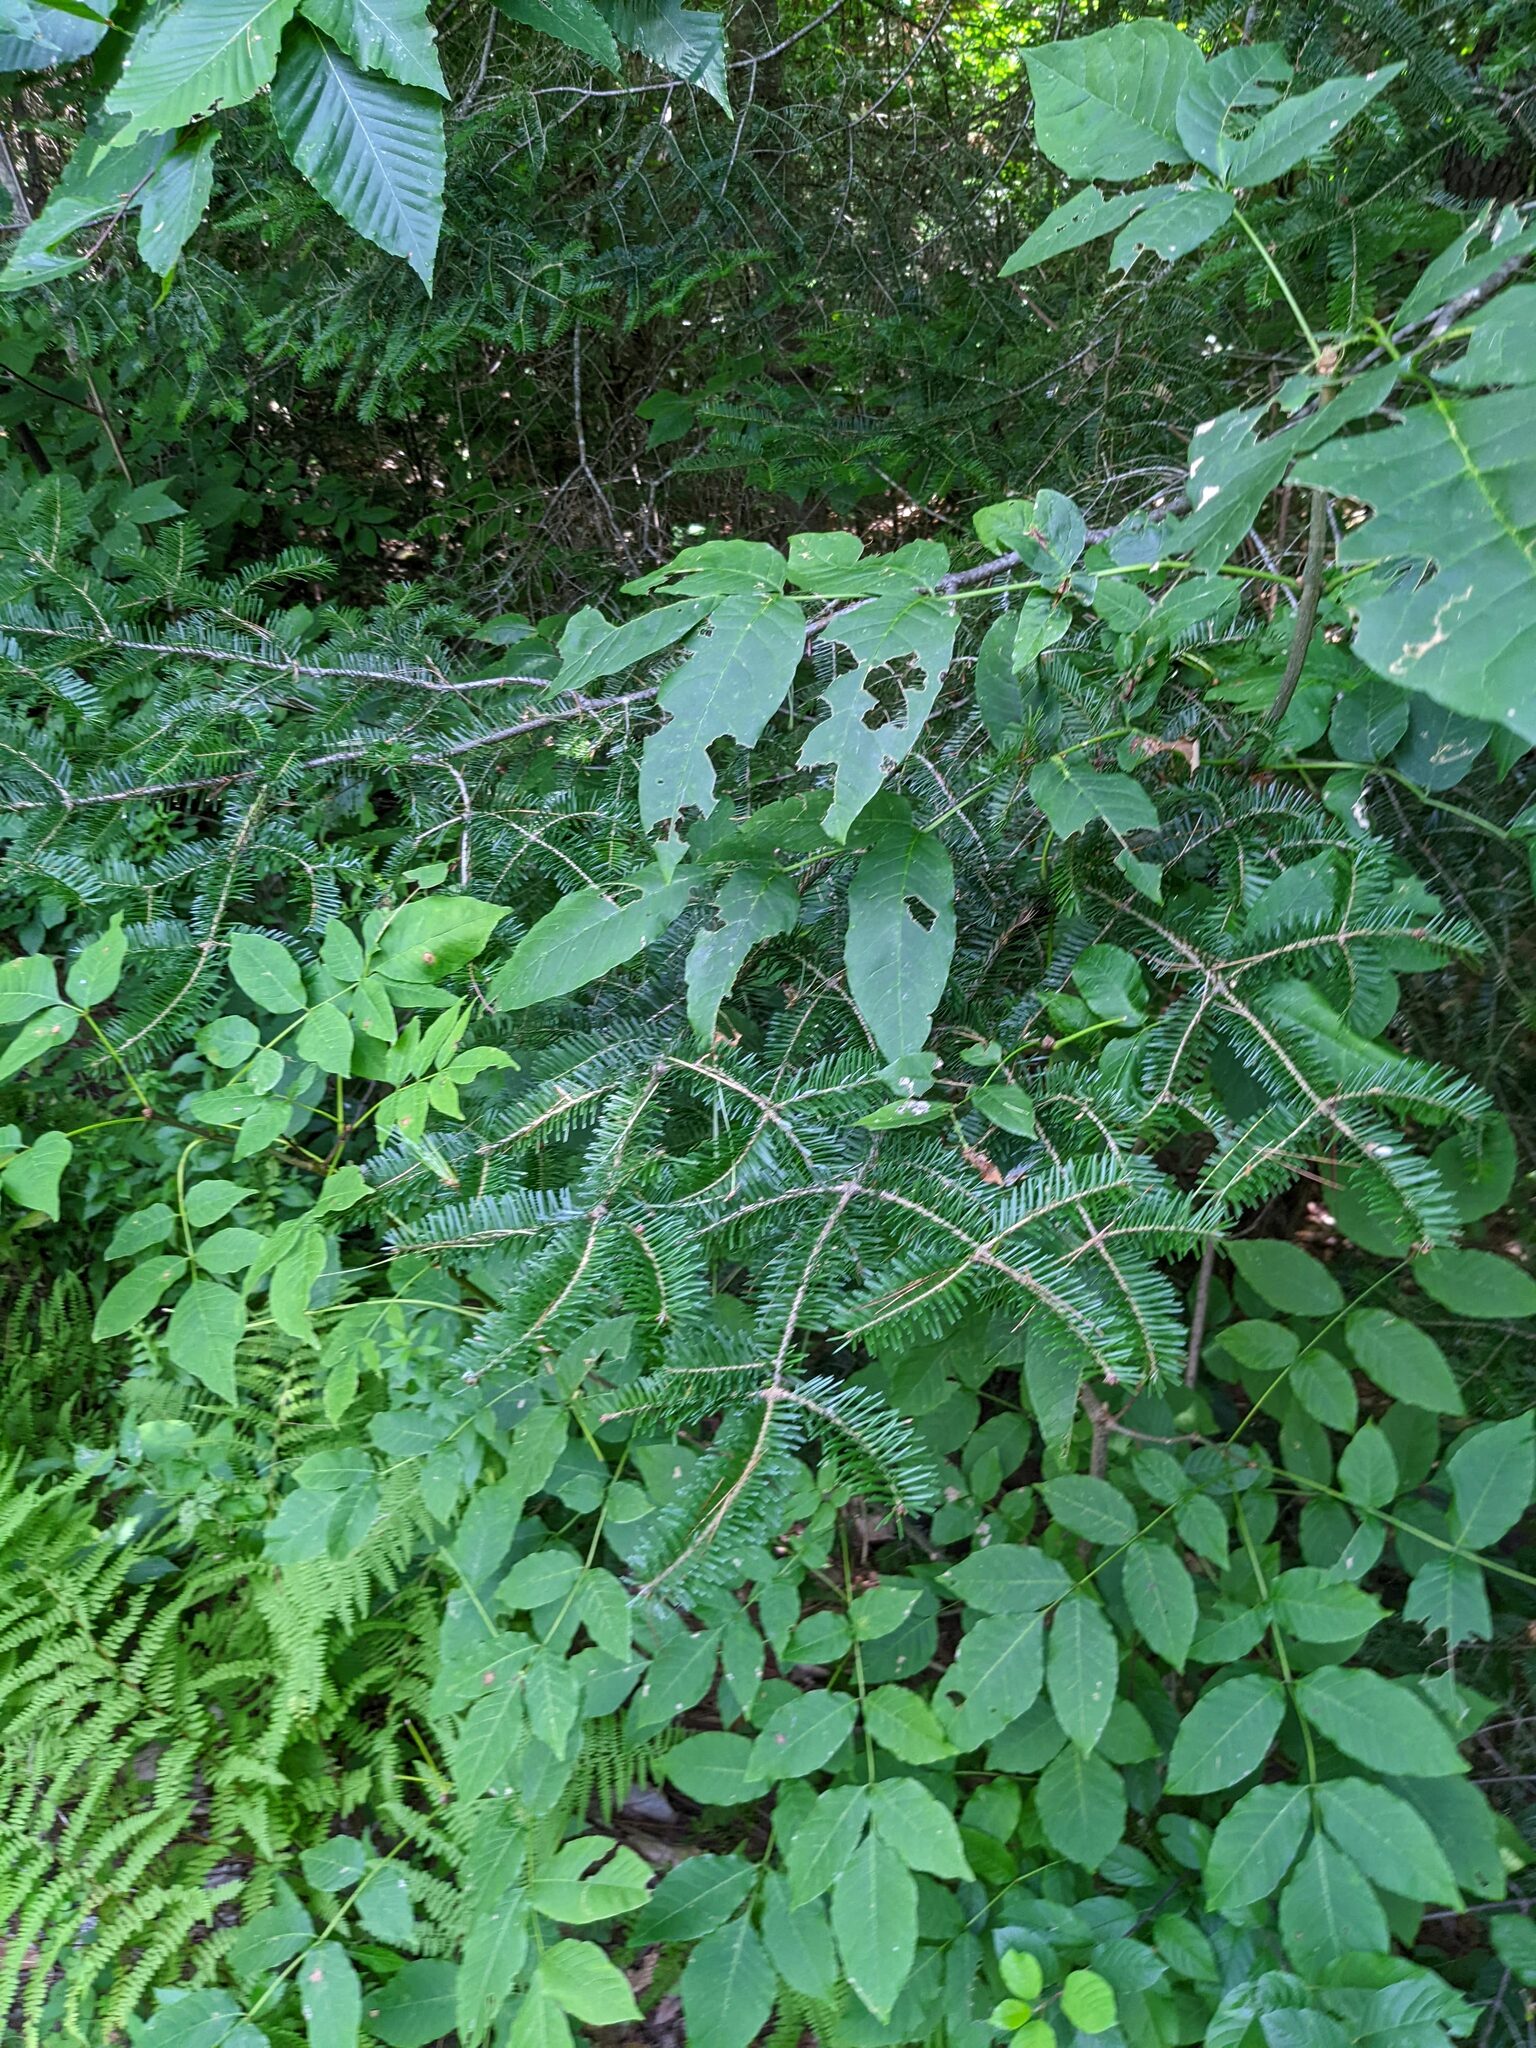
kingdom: Plantae
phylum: Tracheophyta
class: Pinopsida
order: Pinales
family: Pinaceae
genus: Abies
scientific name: Abies balsamea
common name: Balsam fir
